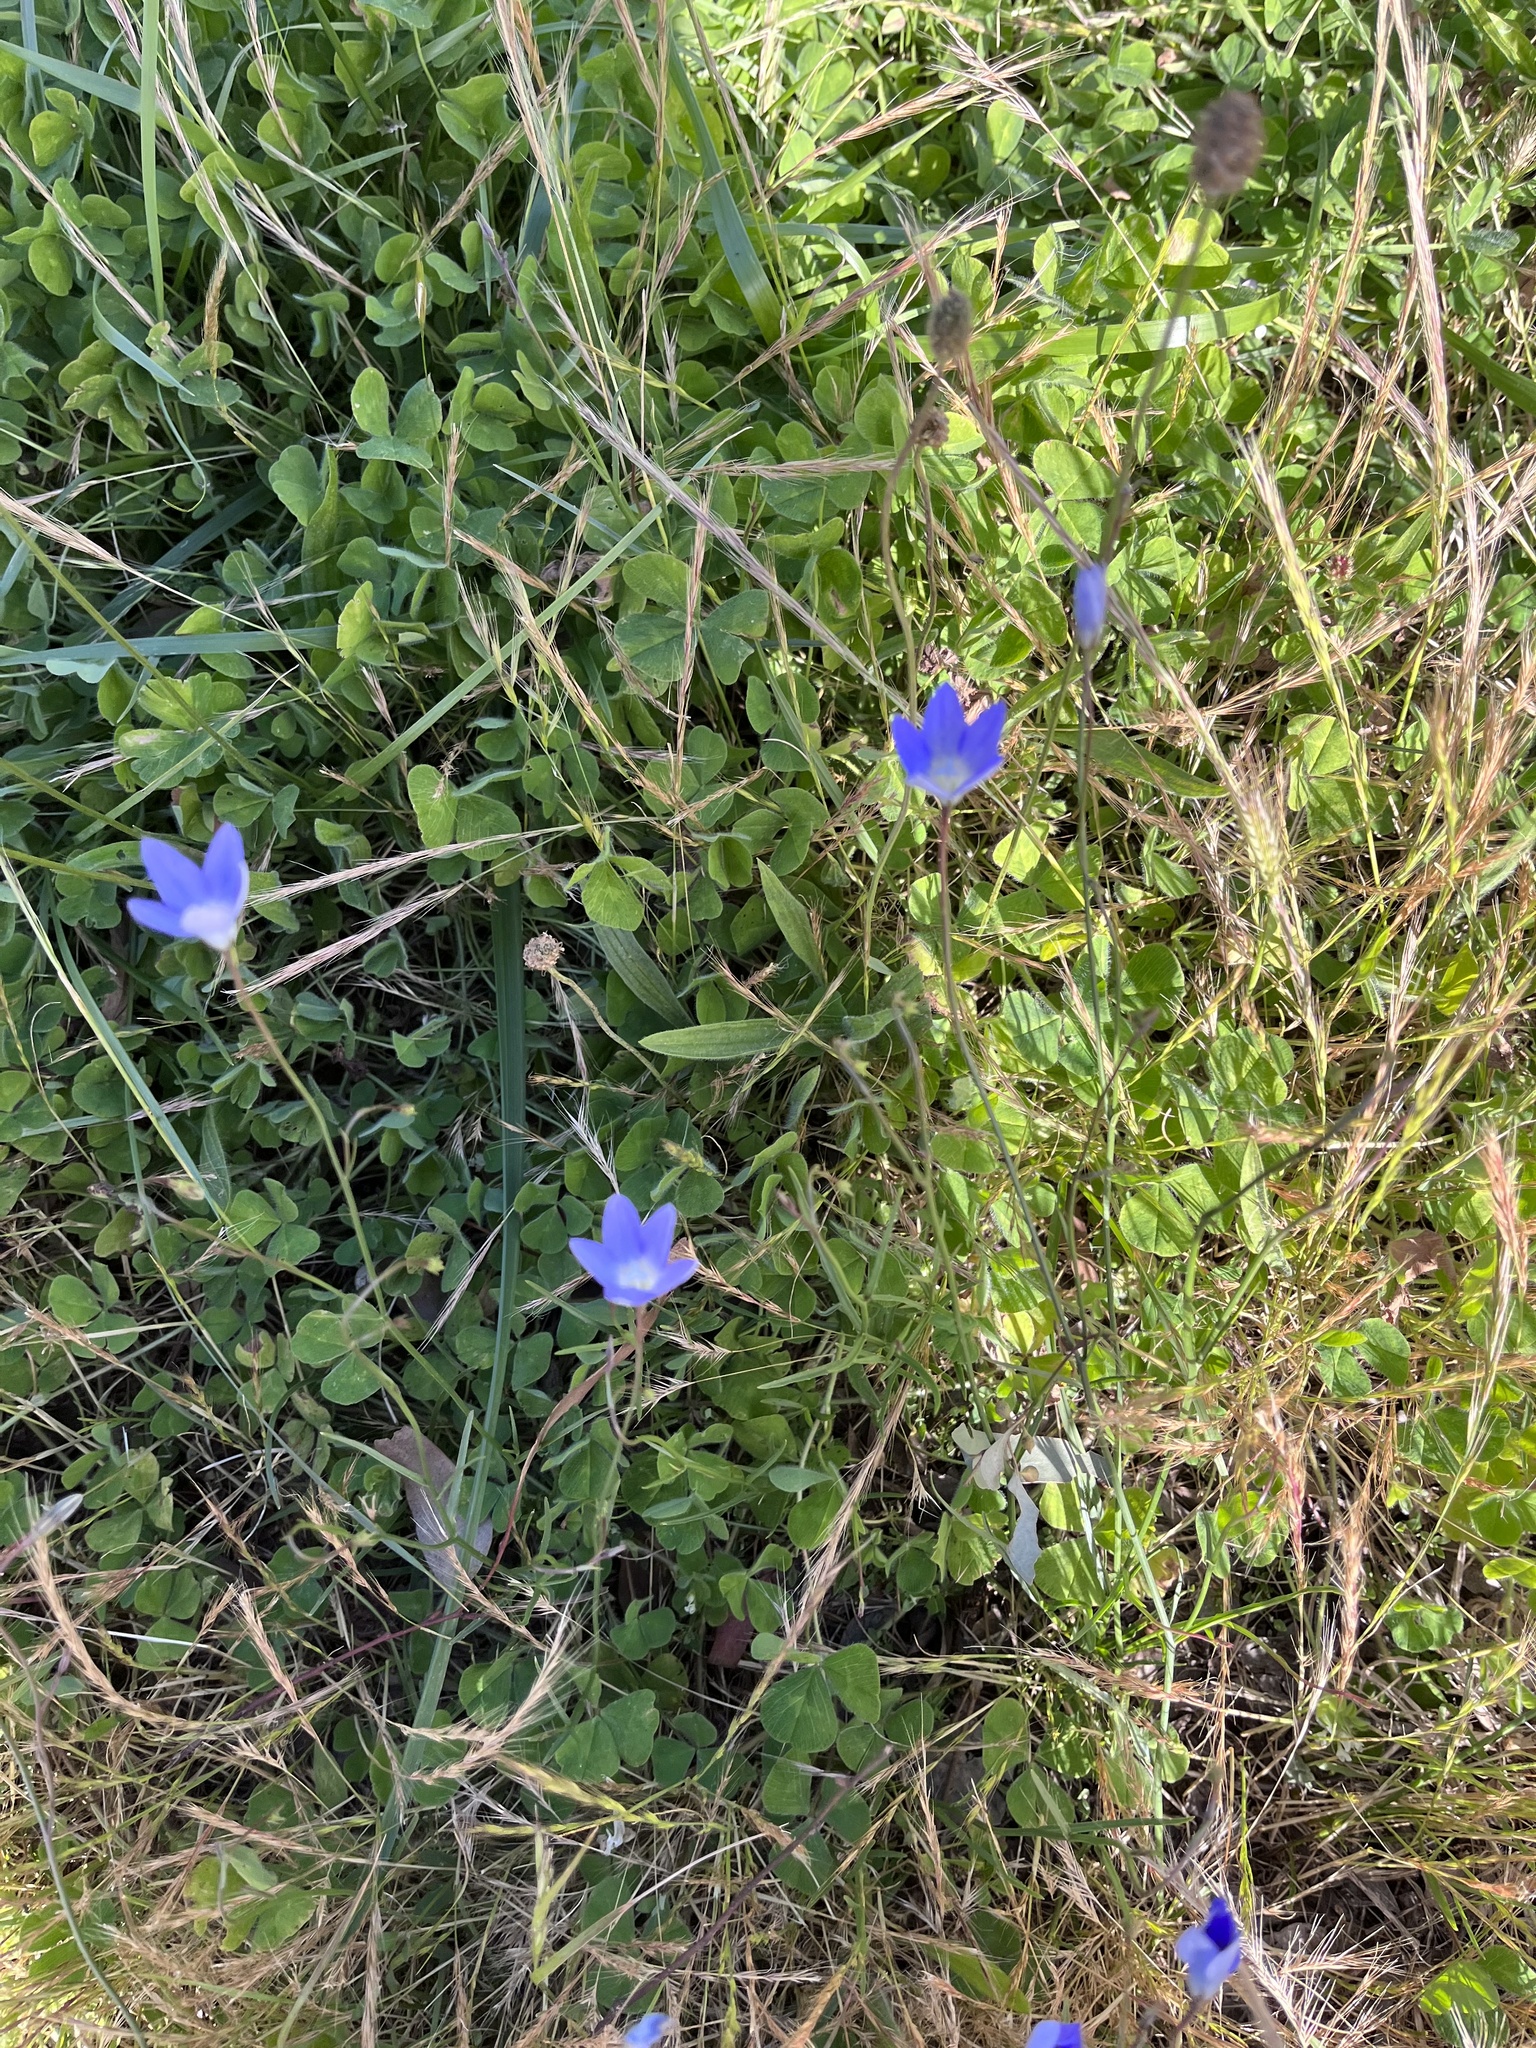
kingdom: Plantae
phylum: Tracheophyta
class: Magnoliopsida
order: Asterales
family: Campanulaceae
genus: Wahlenbergia
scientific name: Wahlenbergia
